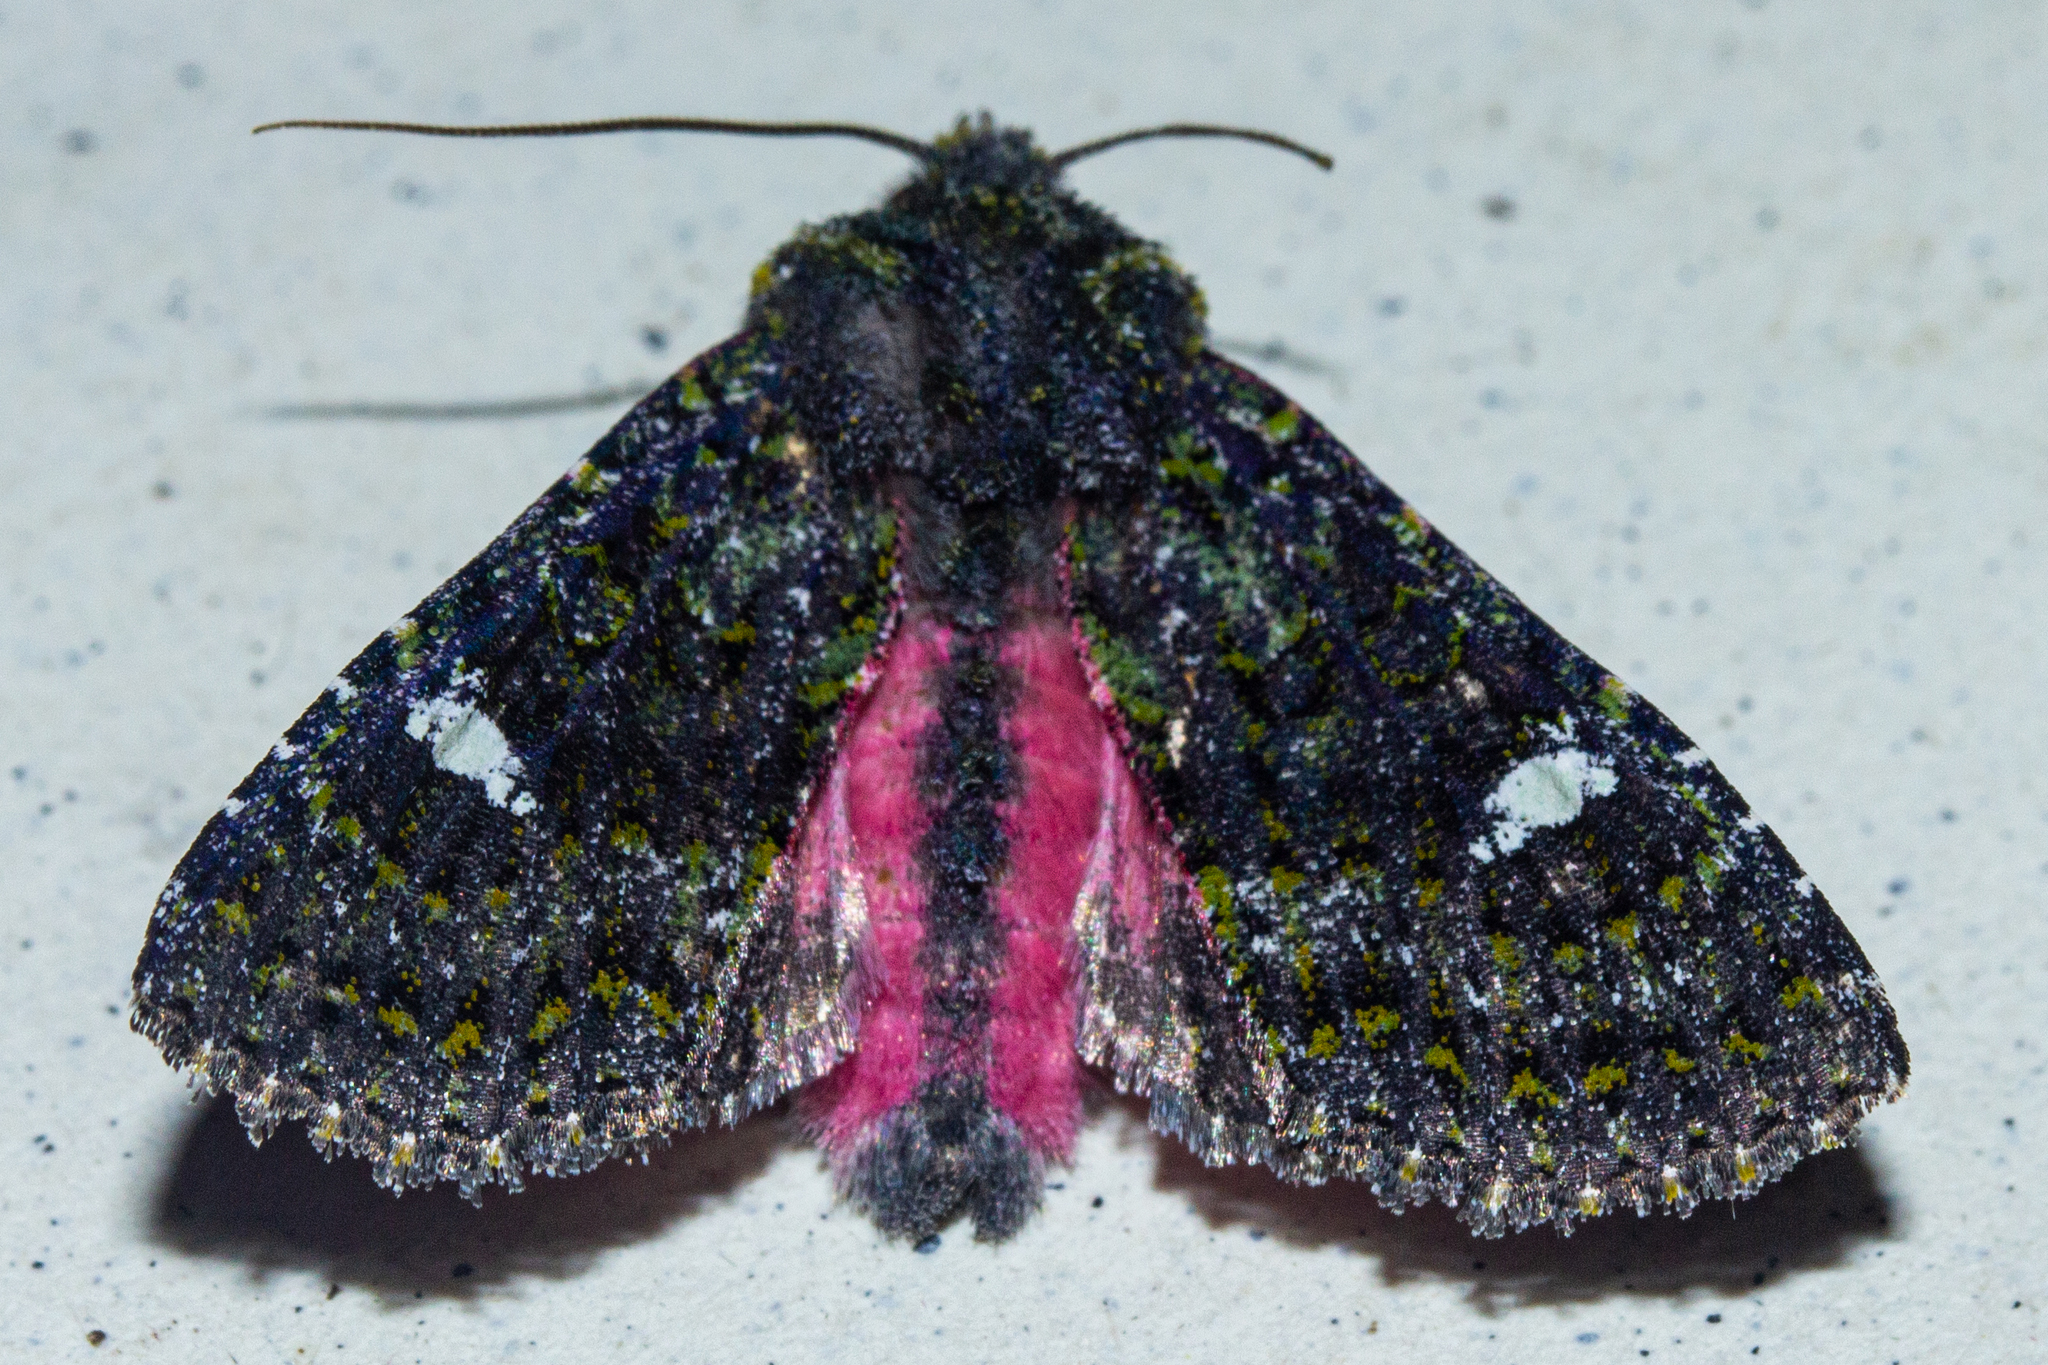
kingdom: Animalia
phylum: Arthropoda
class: Insecta
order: Lepidoptera
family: Noctuidae
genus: Meterana
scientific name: Meterana meyricci
